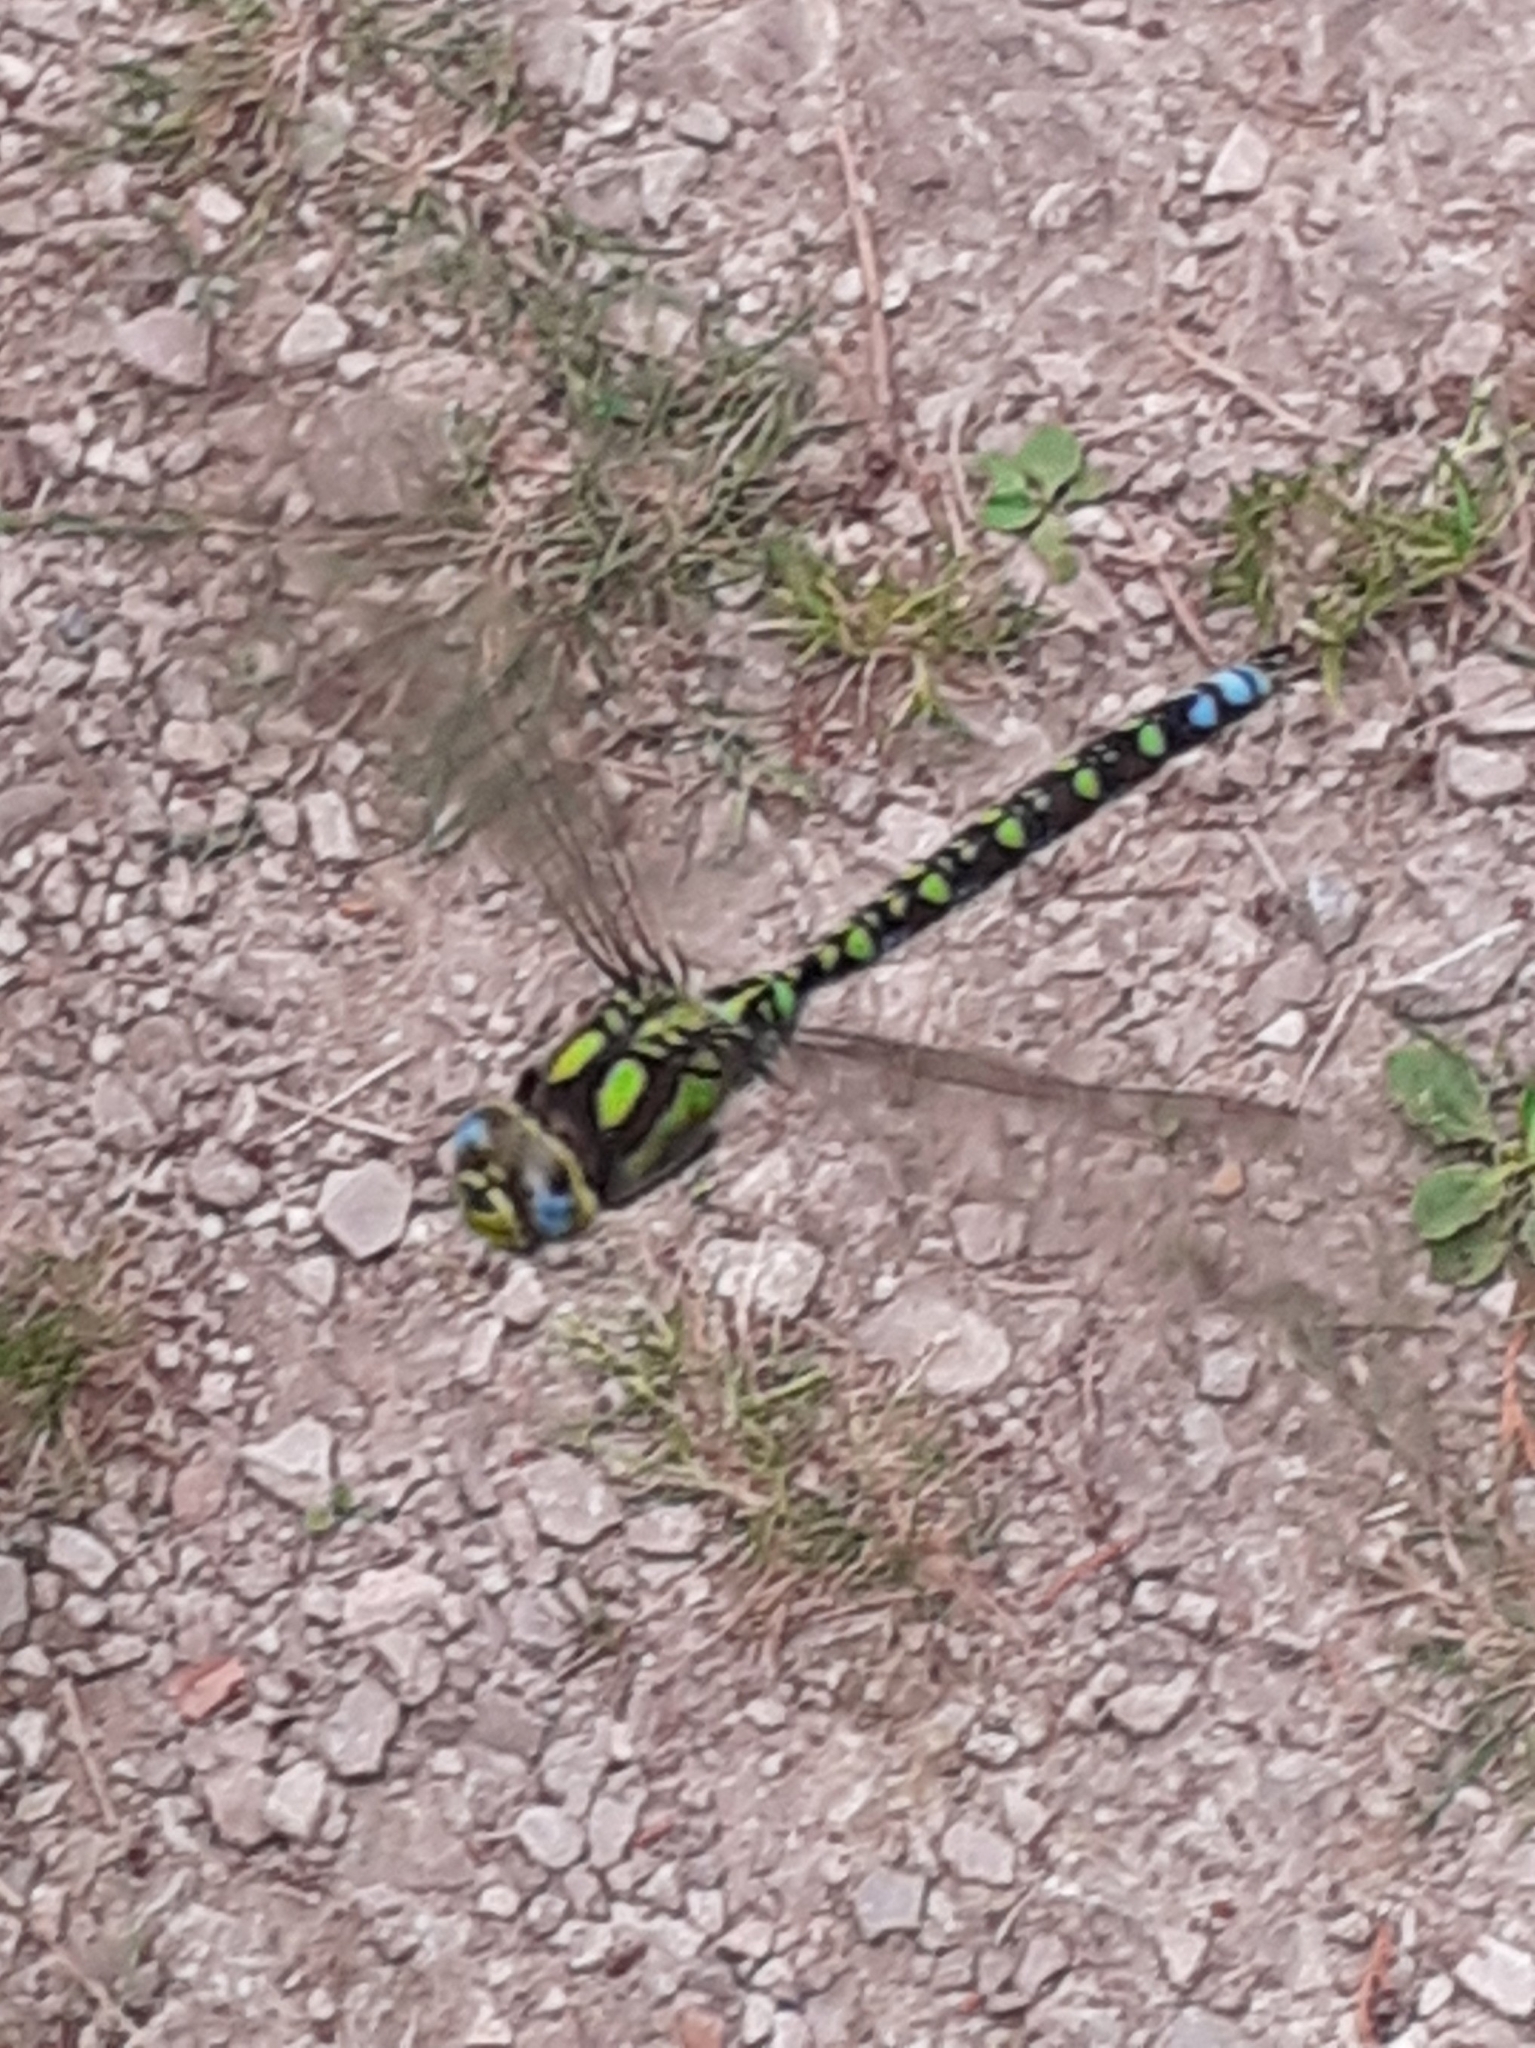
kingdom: Animalia
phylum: Arthropoda
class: Insecta
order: Odonata
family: Aeshnidae
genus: Aeshna
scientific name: Aeshna cyanea
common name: Southern hawker
